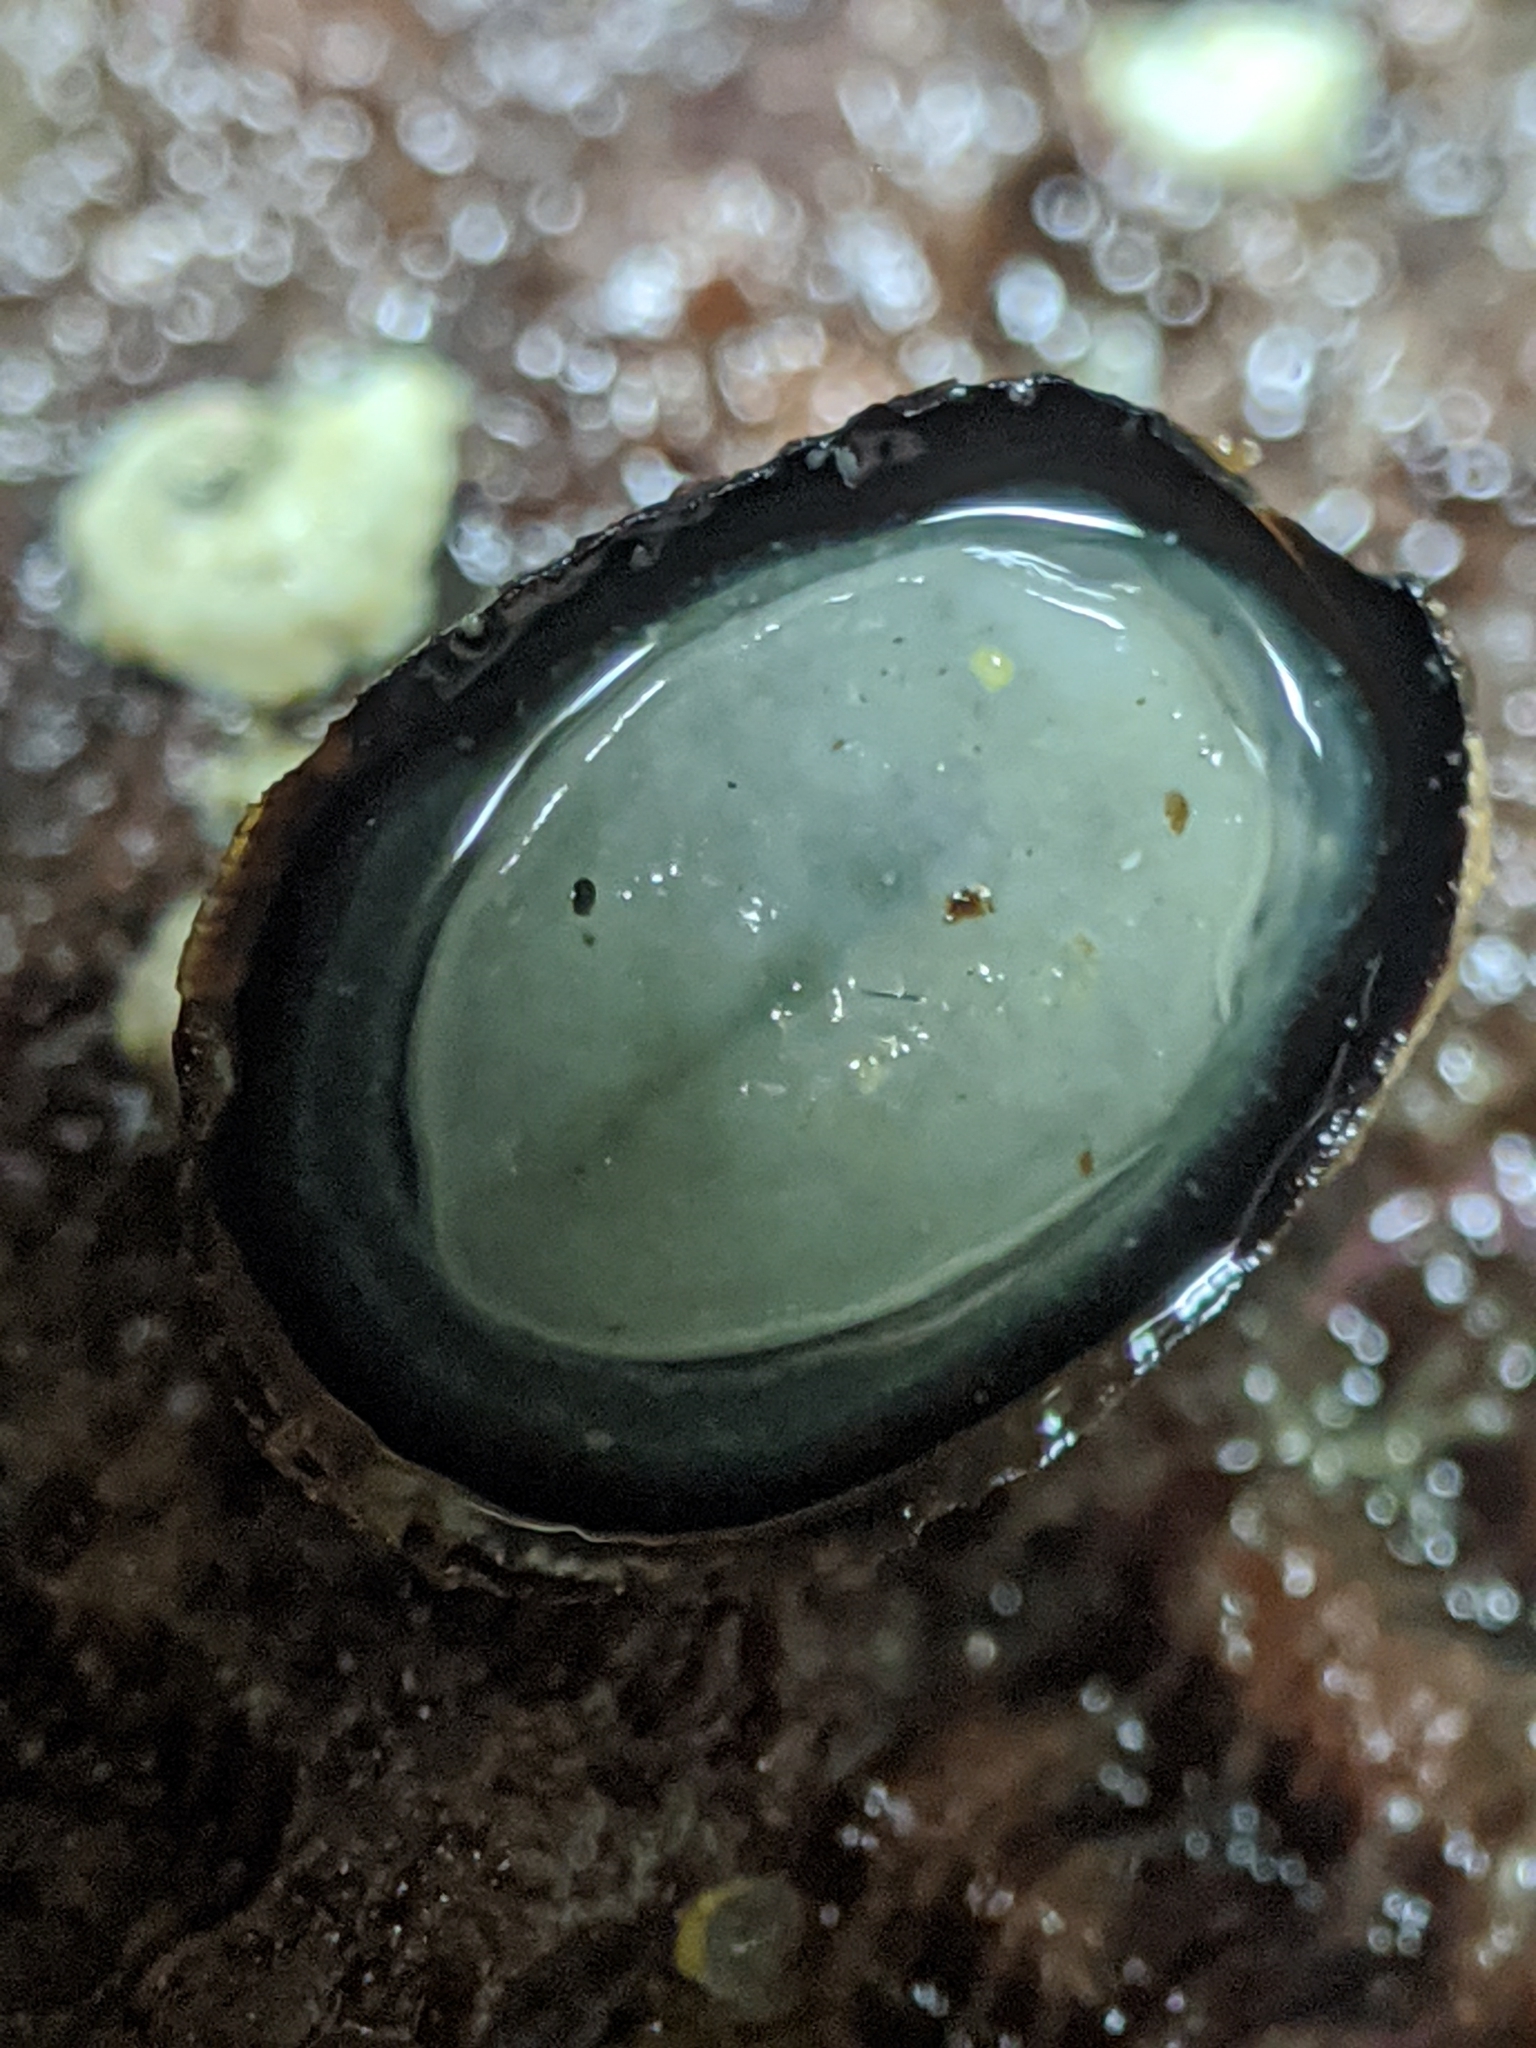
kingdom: Animalia
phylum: Mollusca
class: Gastropoda
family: Lottiidae
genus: Lottia
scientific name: Lottia asmi
